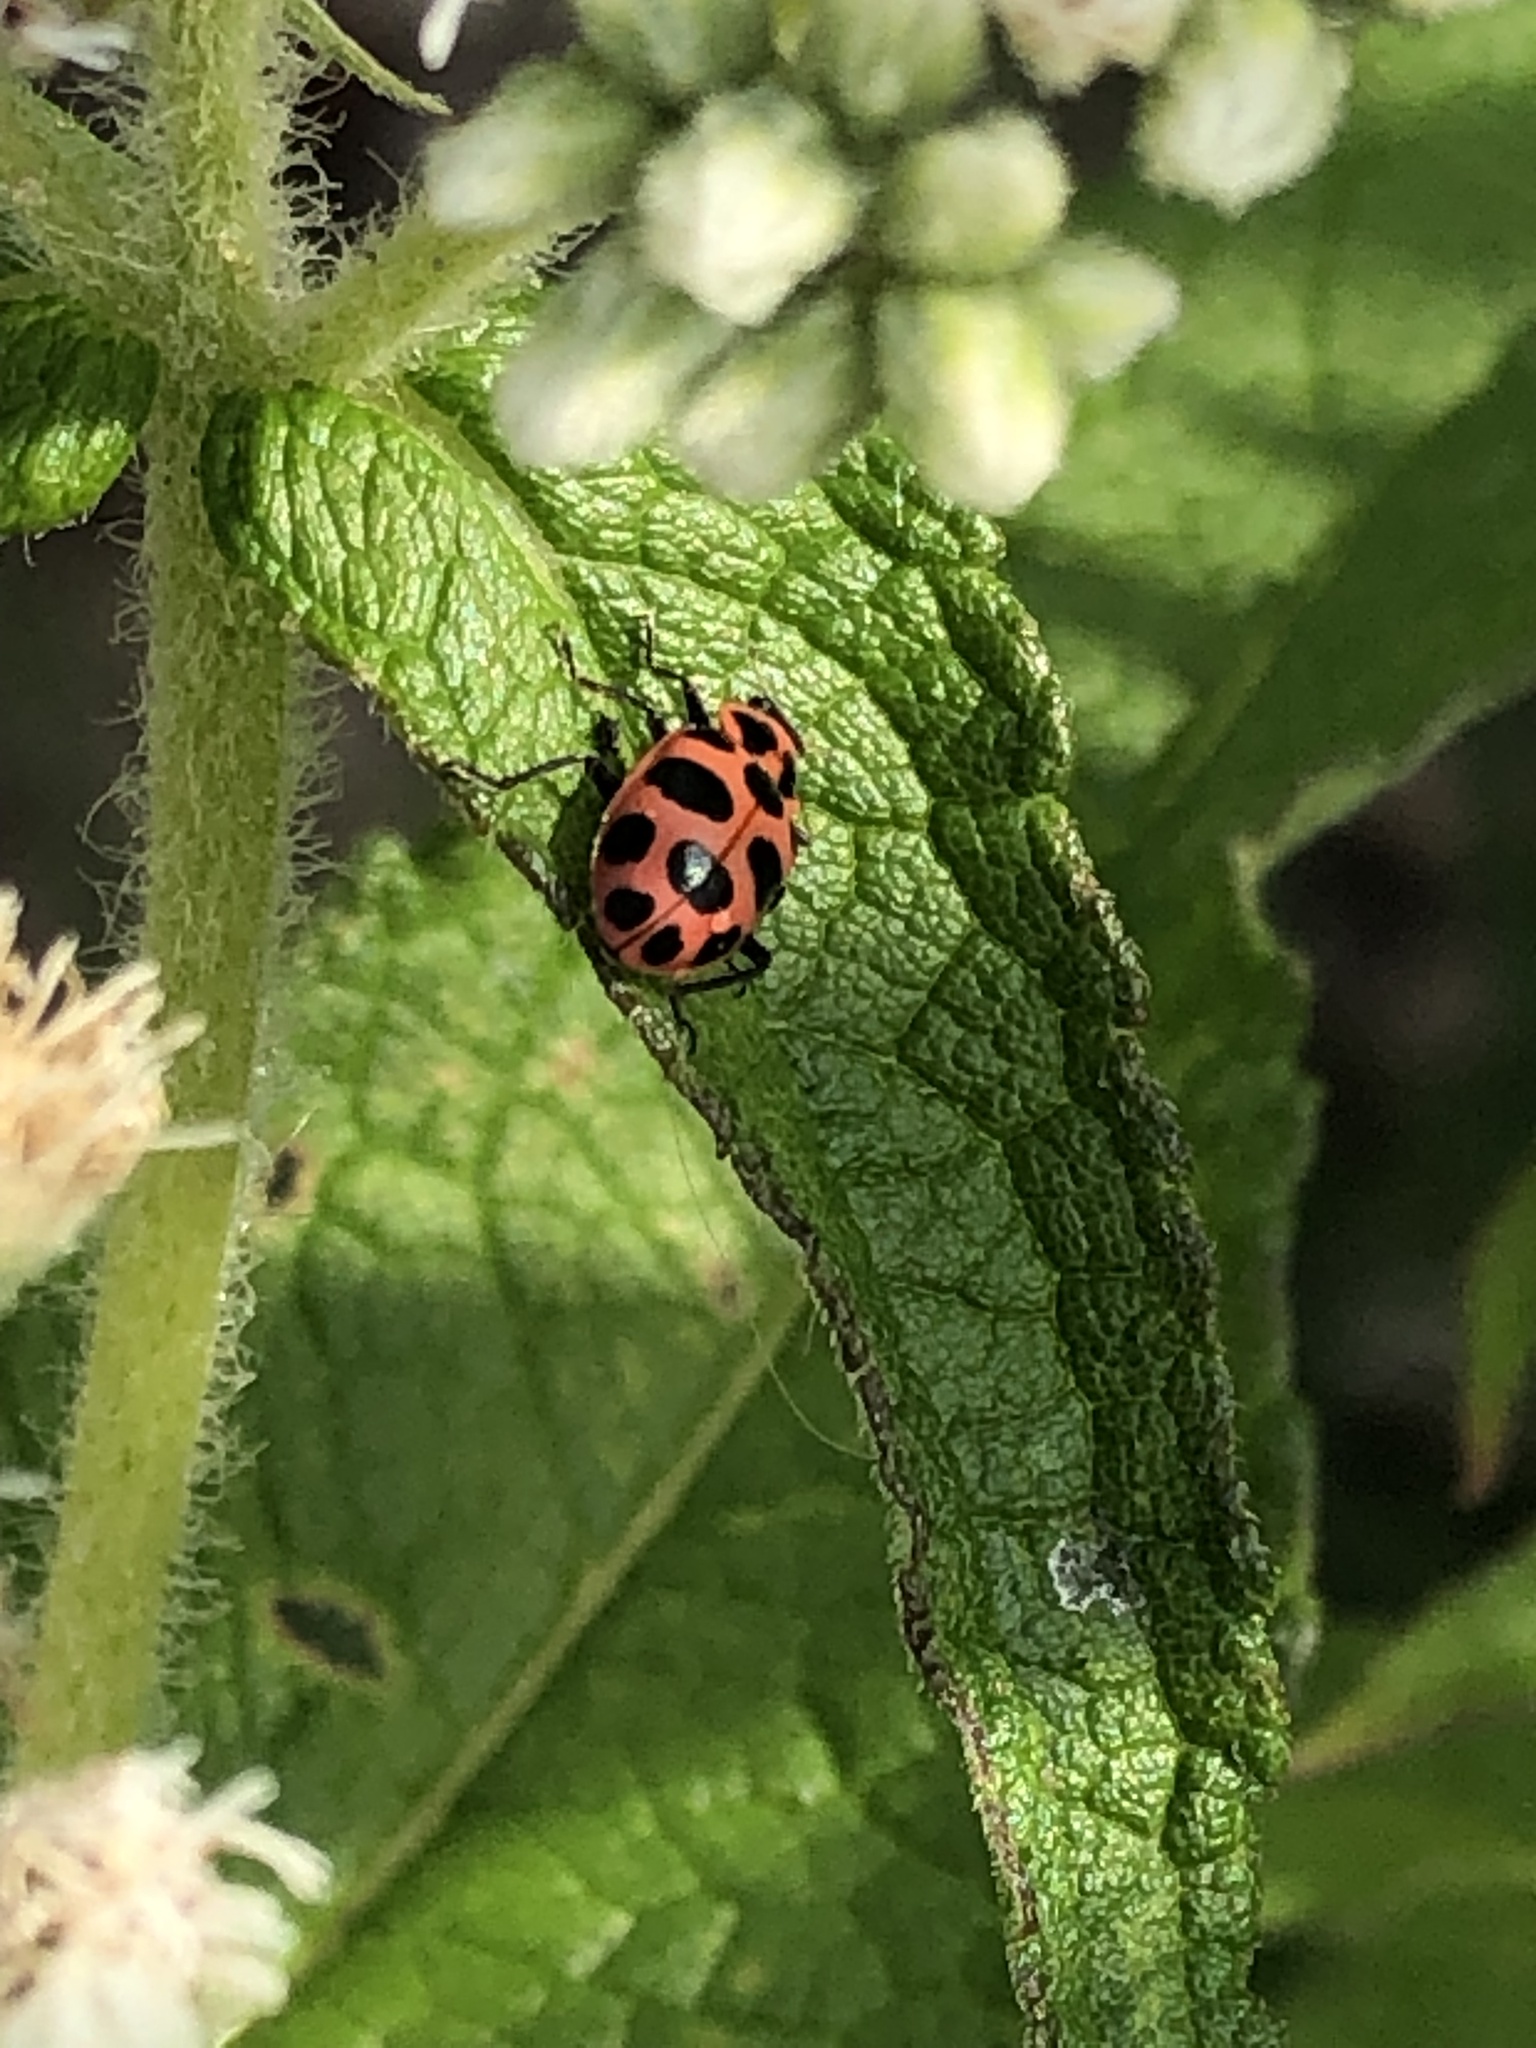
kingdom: Animalia
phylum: Arthropoda
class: Insecta
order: Coleoptera
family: Coccinellidae
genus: Coleomegilla
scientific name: Coleomegilla maculata
